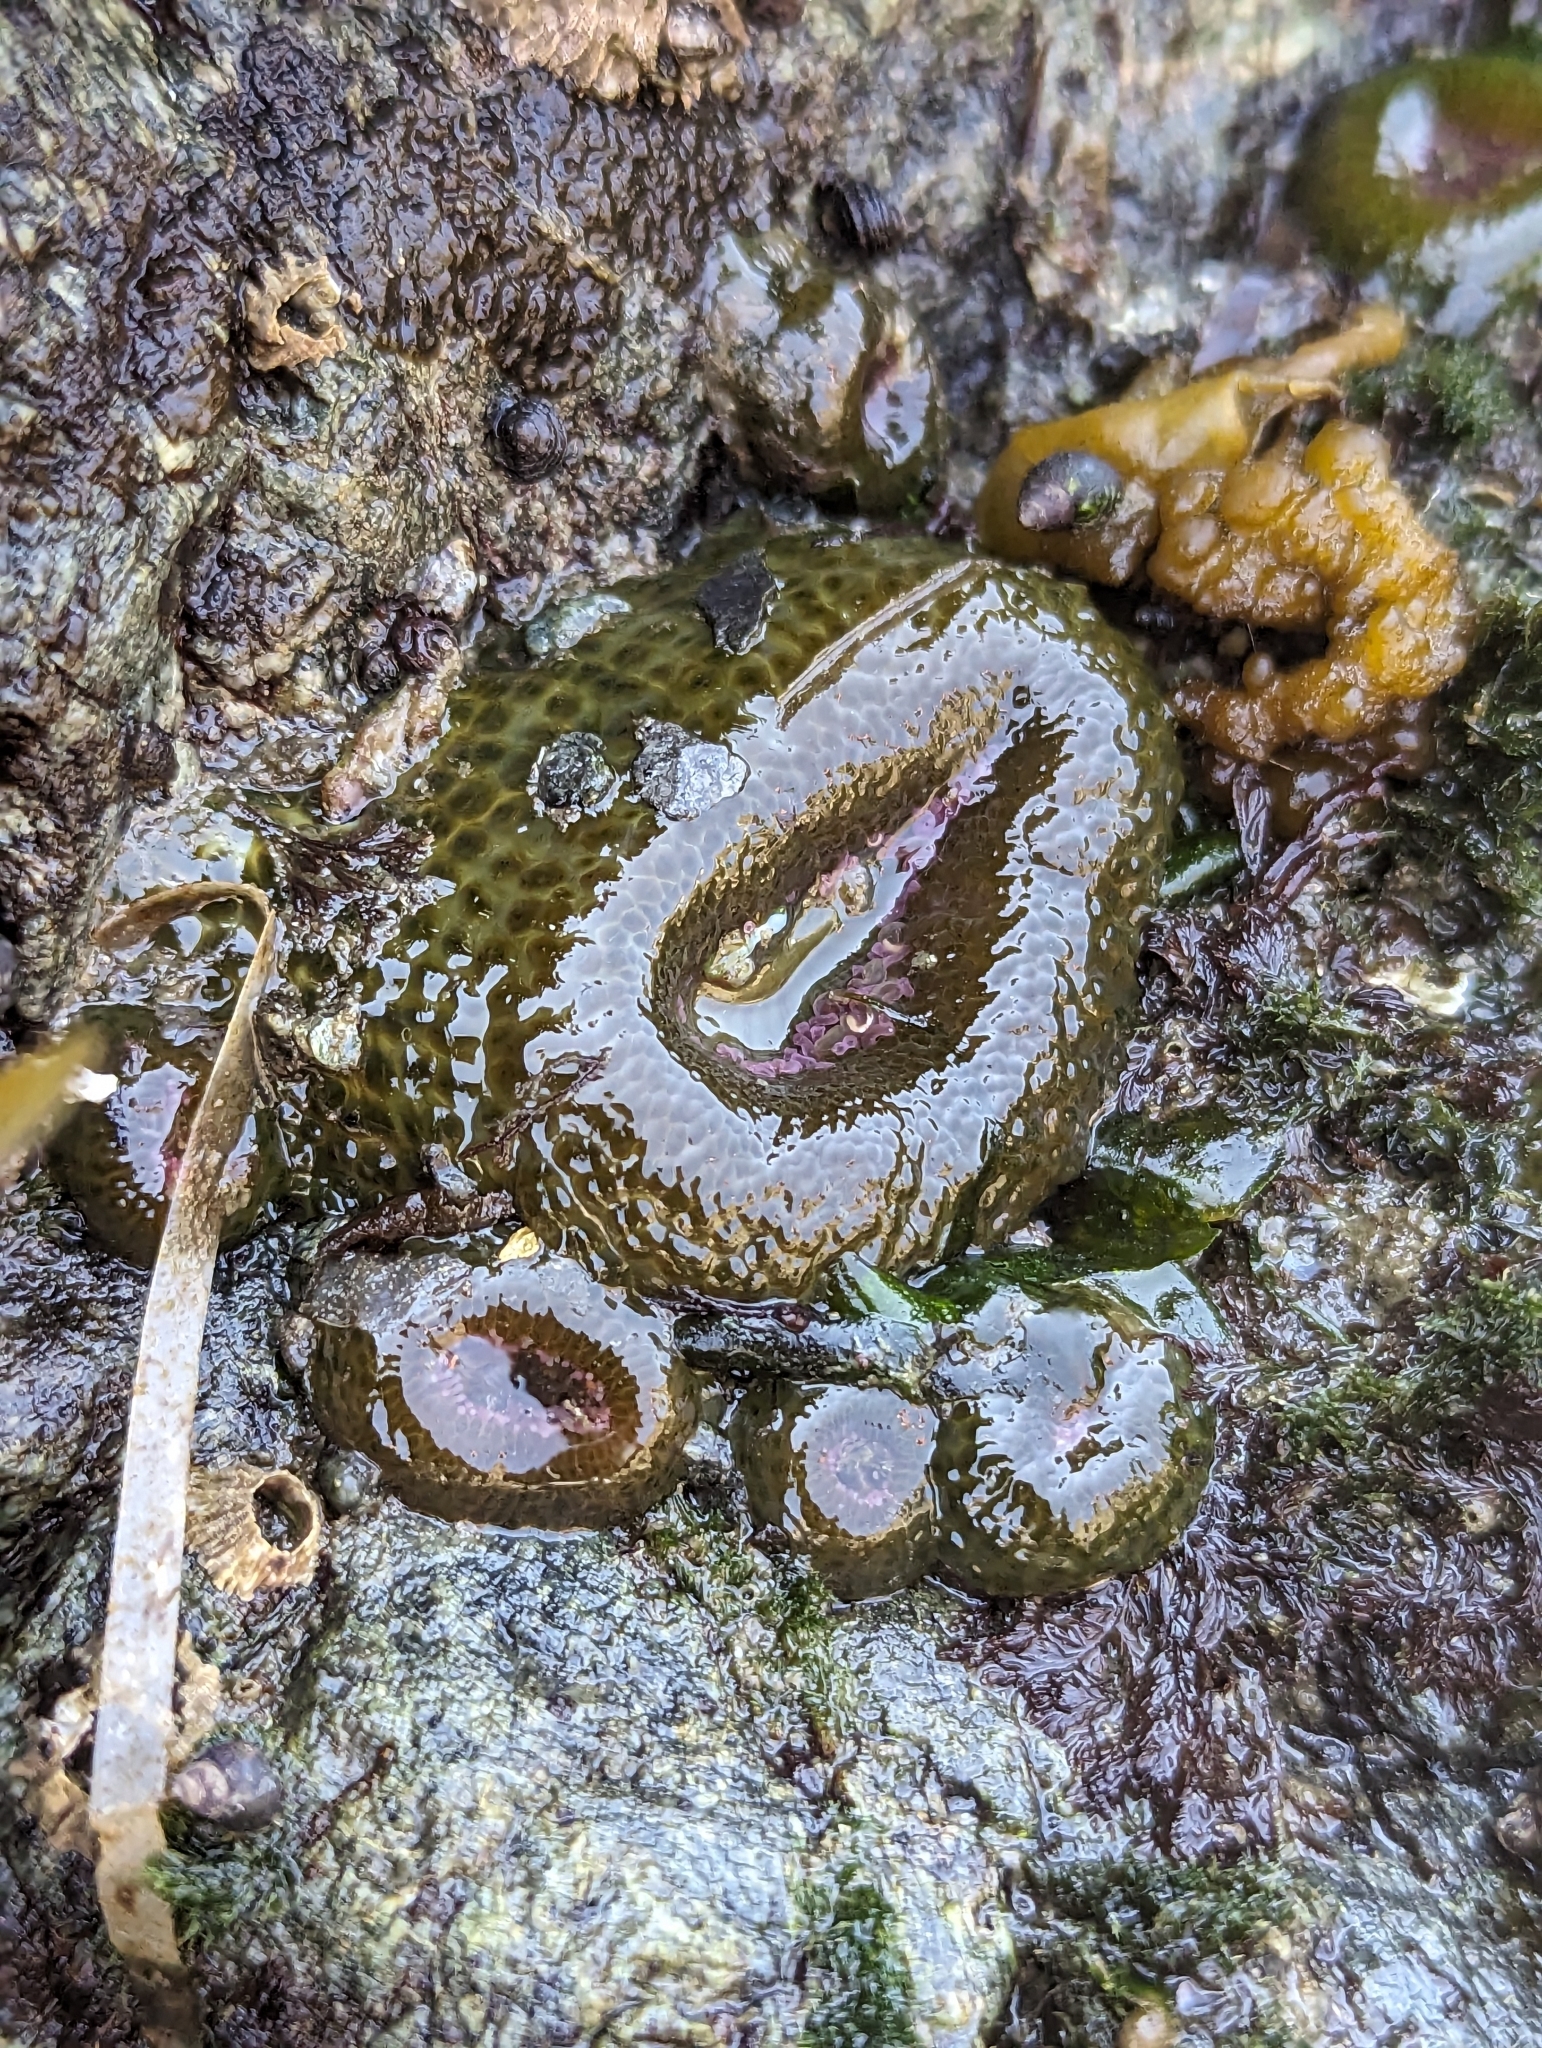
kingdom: Animalia
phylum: Cnidaria
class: Anthozoa
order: Actiniaria
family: Actiniidae
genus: Anthopleura
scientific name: Anthopleura elegantissima
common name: Clonal anemone
